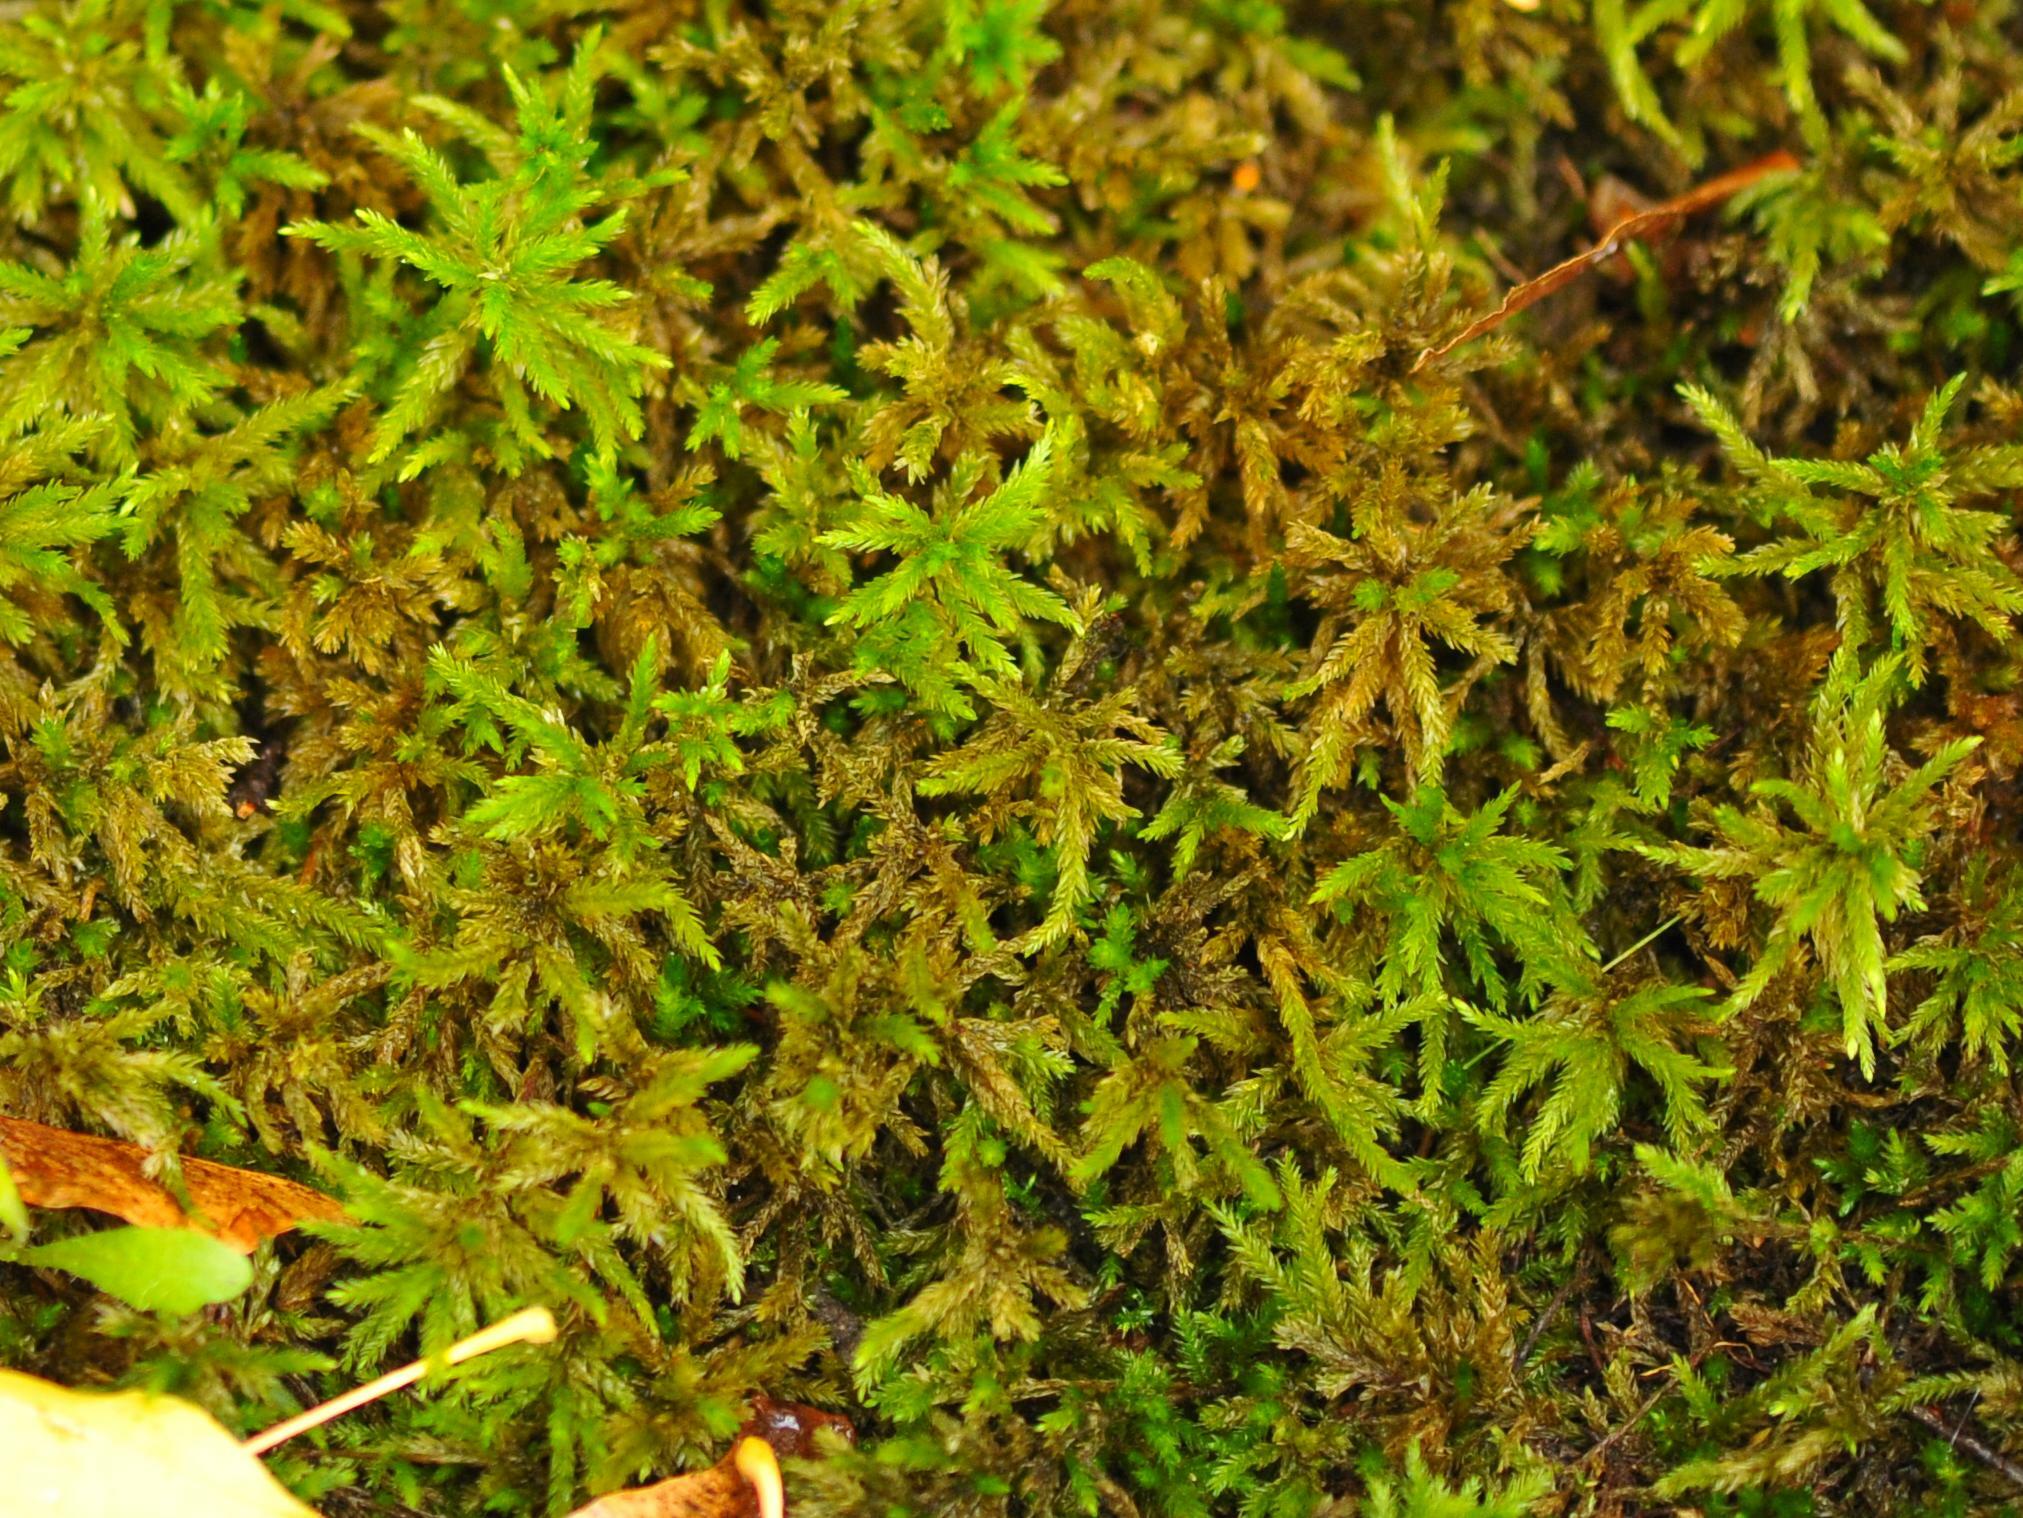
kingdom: Plantae
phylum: Bryophyta
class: Bryopsida
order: Hypnales
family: Climaciaceae
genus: Climacium
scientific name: Climacium dendroides
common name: Northern tree moss
